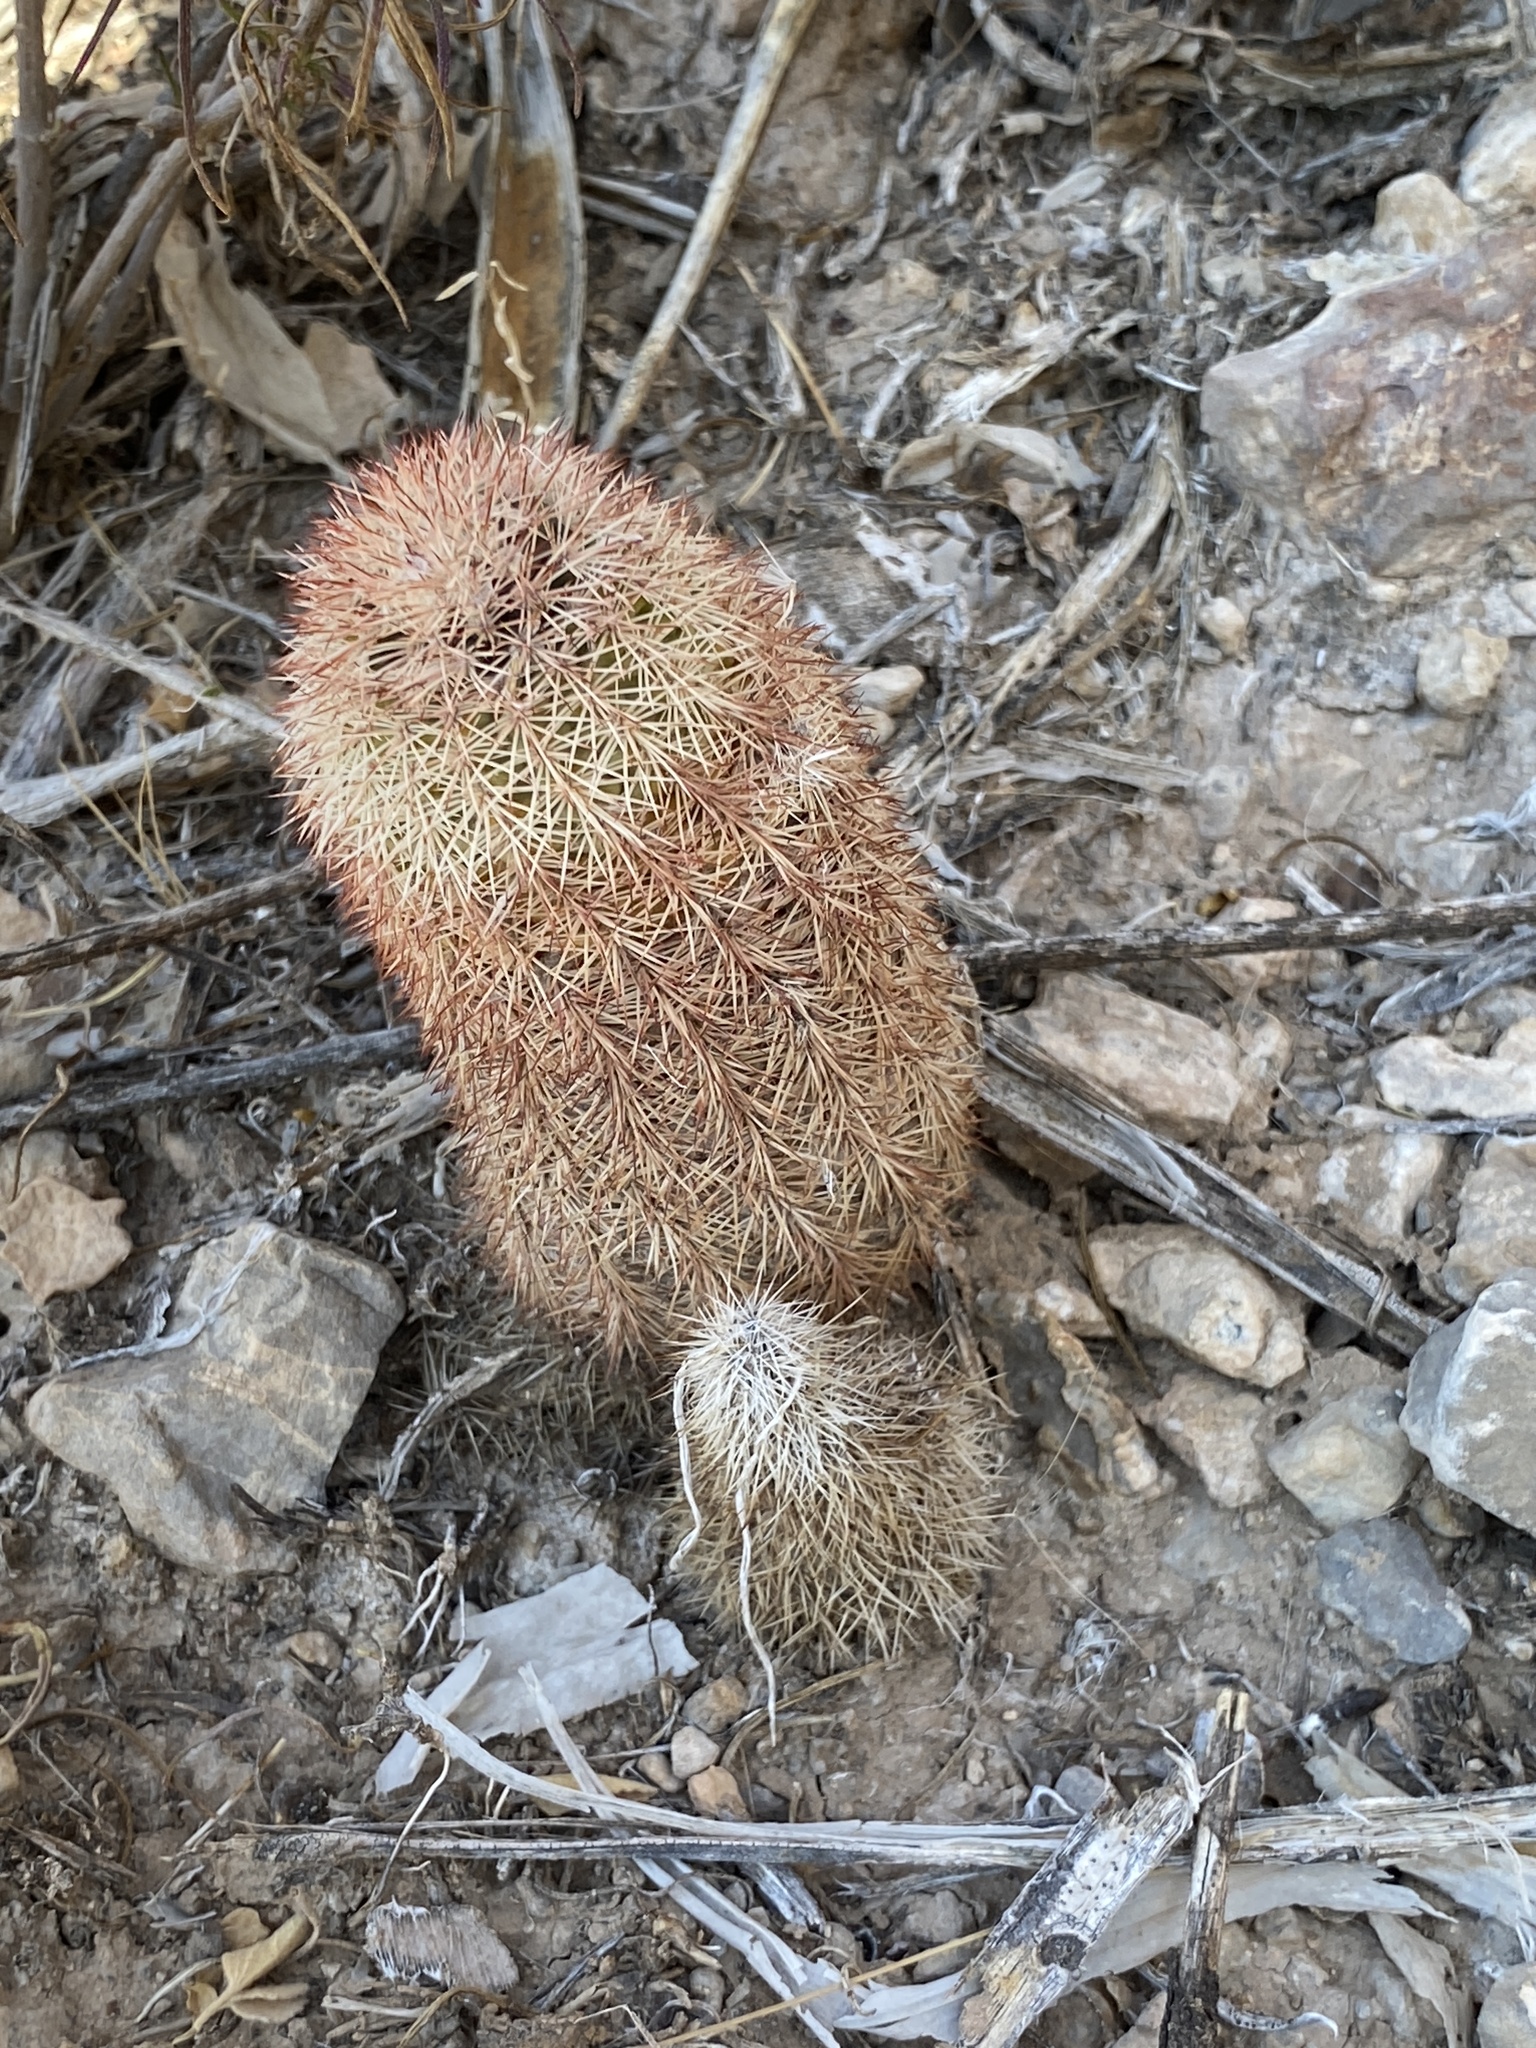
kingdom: Plantae
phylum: Tracheophyta
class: Magnoliopsida
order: Caryophyllales
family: Cactaceae
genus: Echinocereus
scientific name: Echinocereus dasyacanthus
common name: Spiny hedgehog cactus
